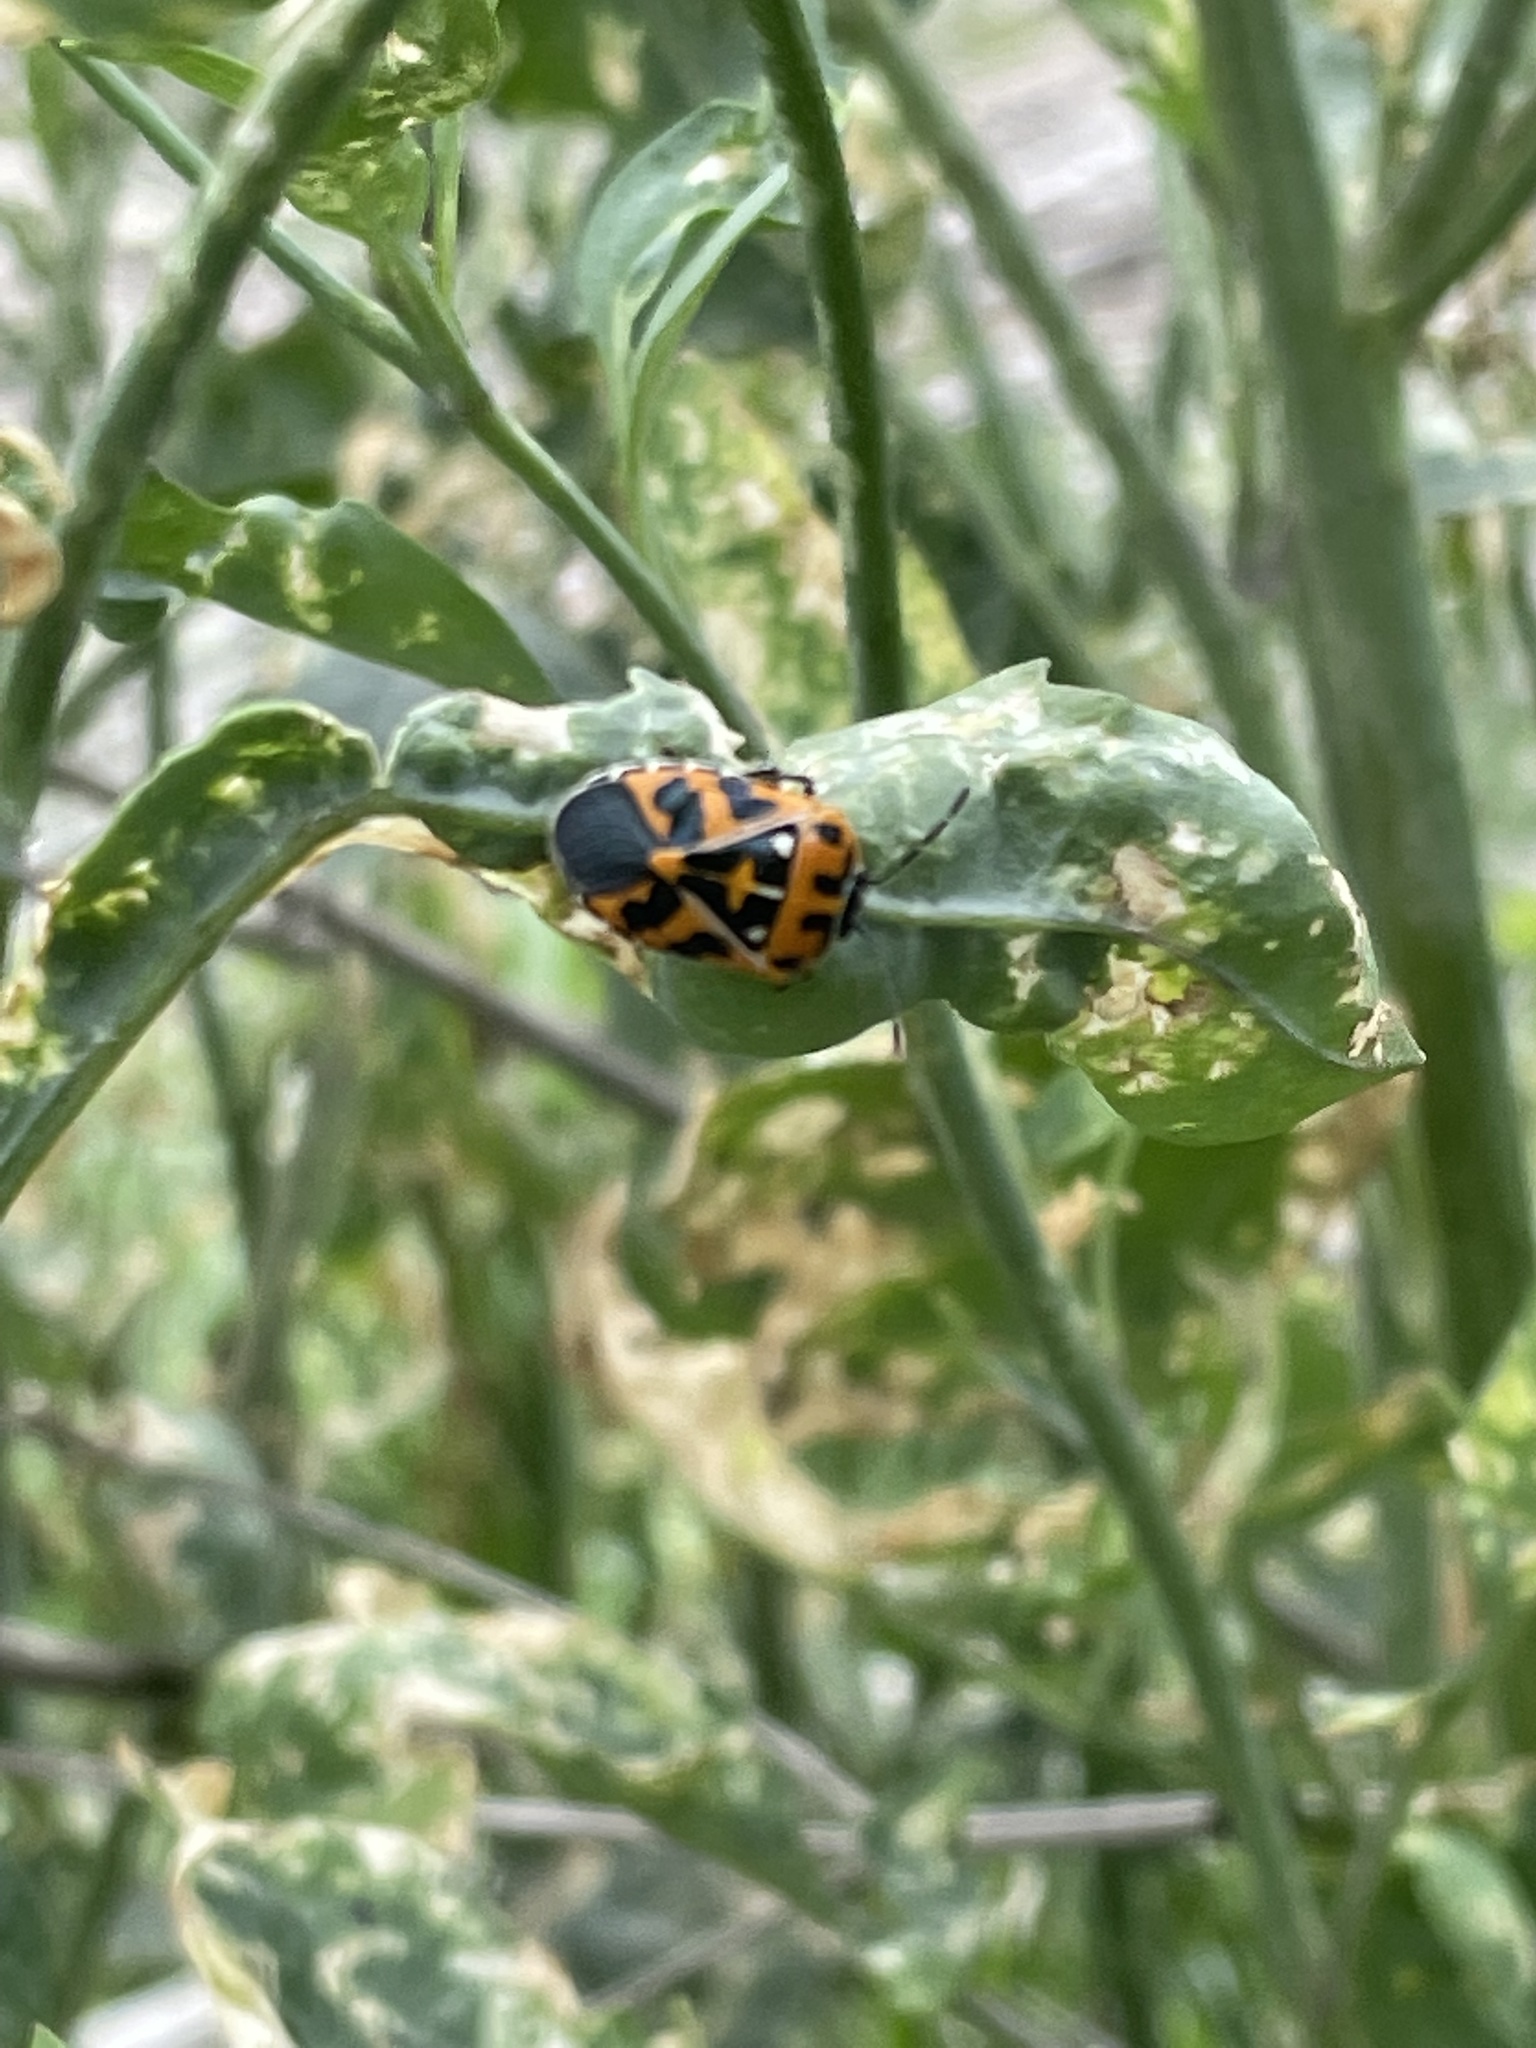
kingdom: Animalia
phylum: Arthropoda
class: Insecta
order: Hemiptera
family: Pentatomidae
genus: Murgantia
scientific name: Murgantia histrionica
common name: Harlequin bug
